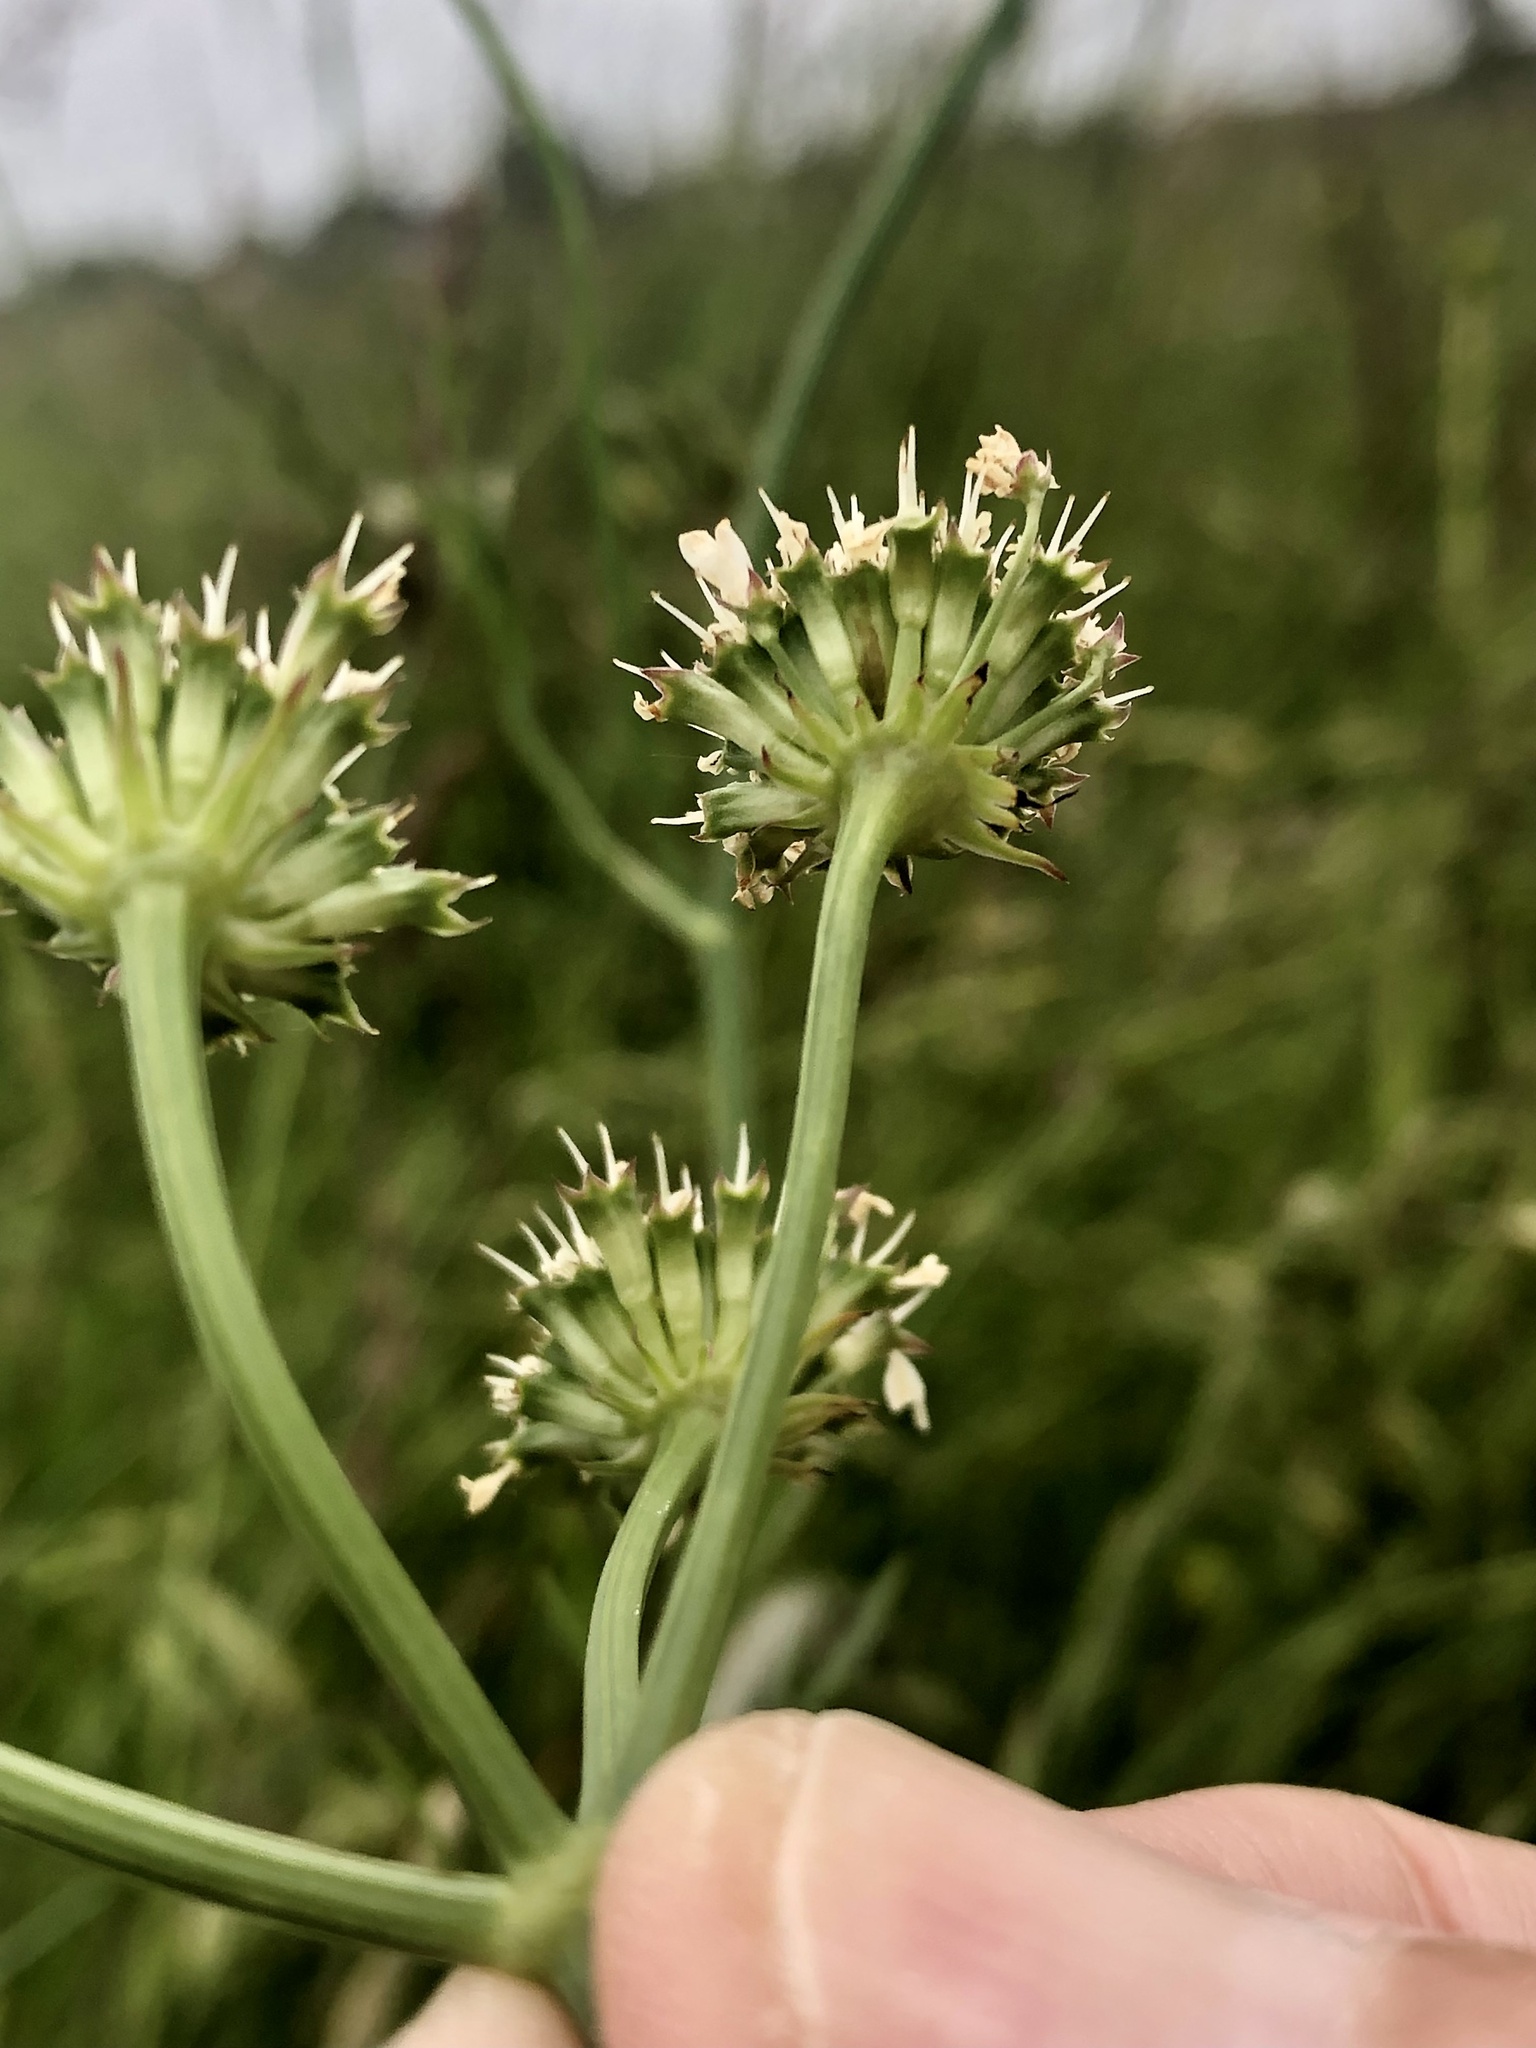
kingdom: Plantae
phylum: Tracheophyta
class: Magnoliopsida
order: Apiales
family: Apiaceae
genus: Oenanthe
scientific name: Oenanthe silaifolia
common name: Narrow-leaved water-dropwort
